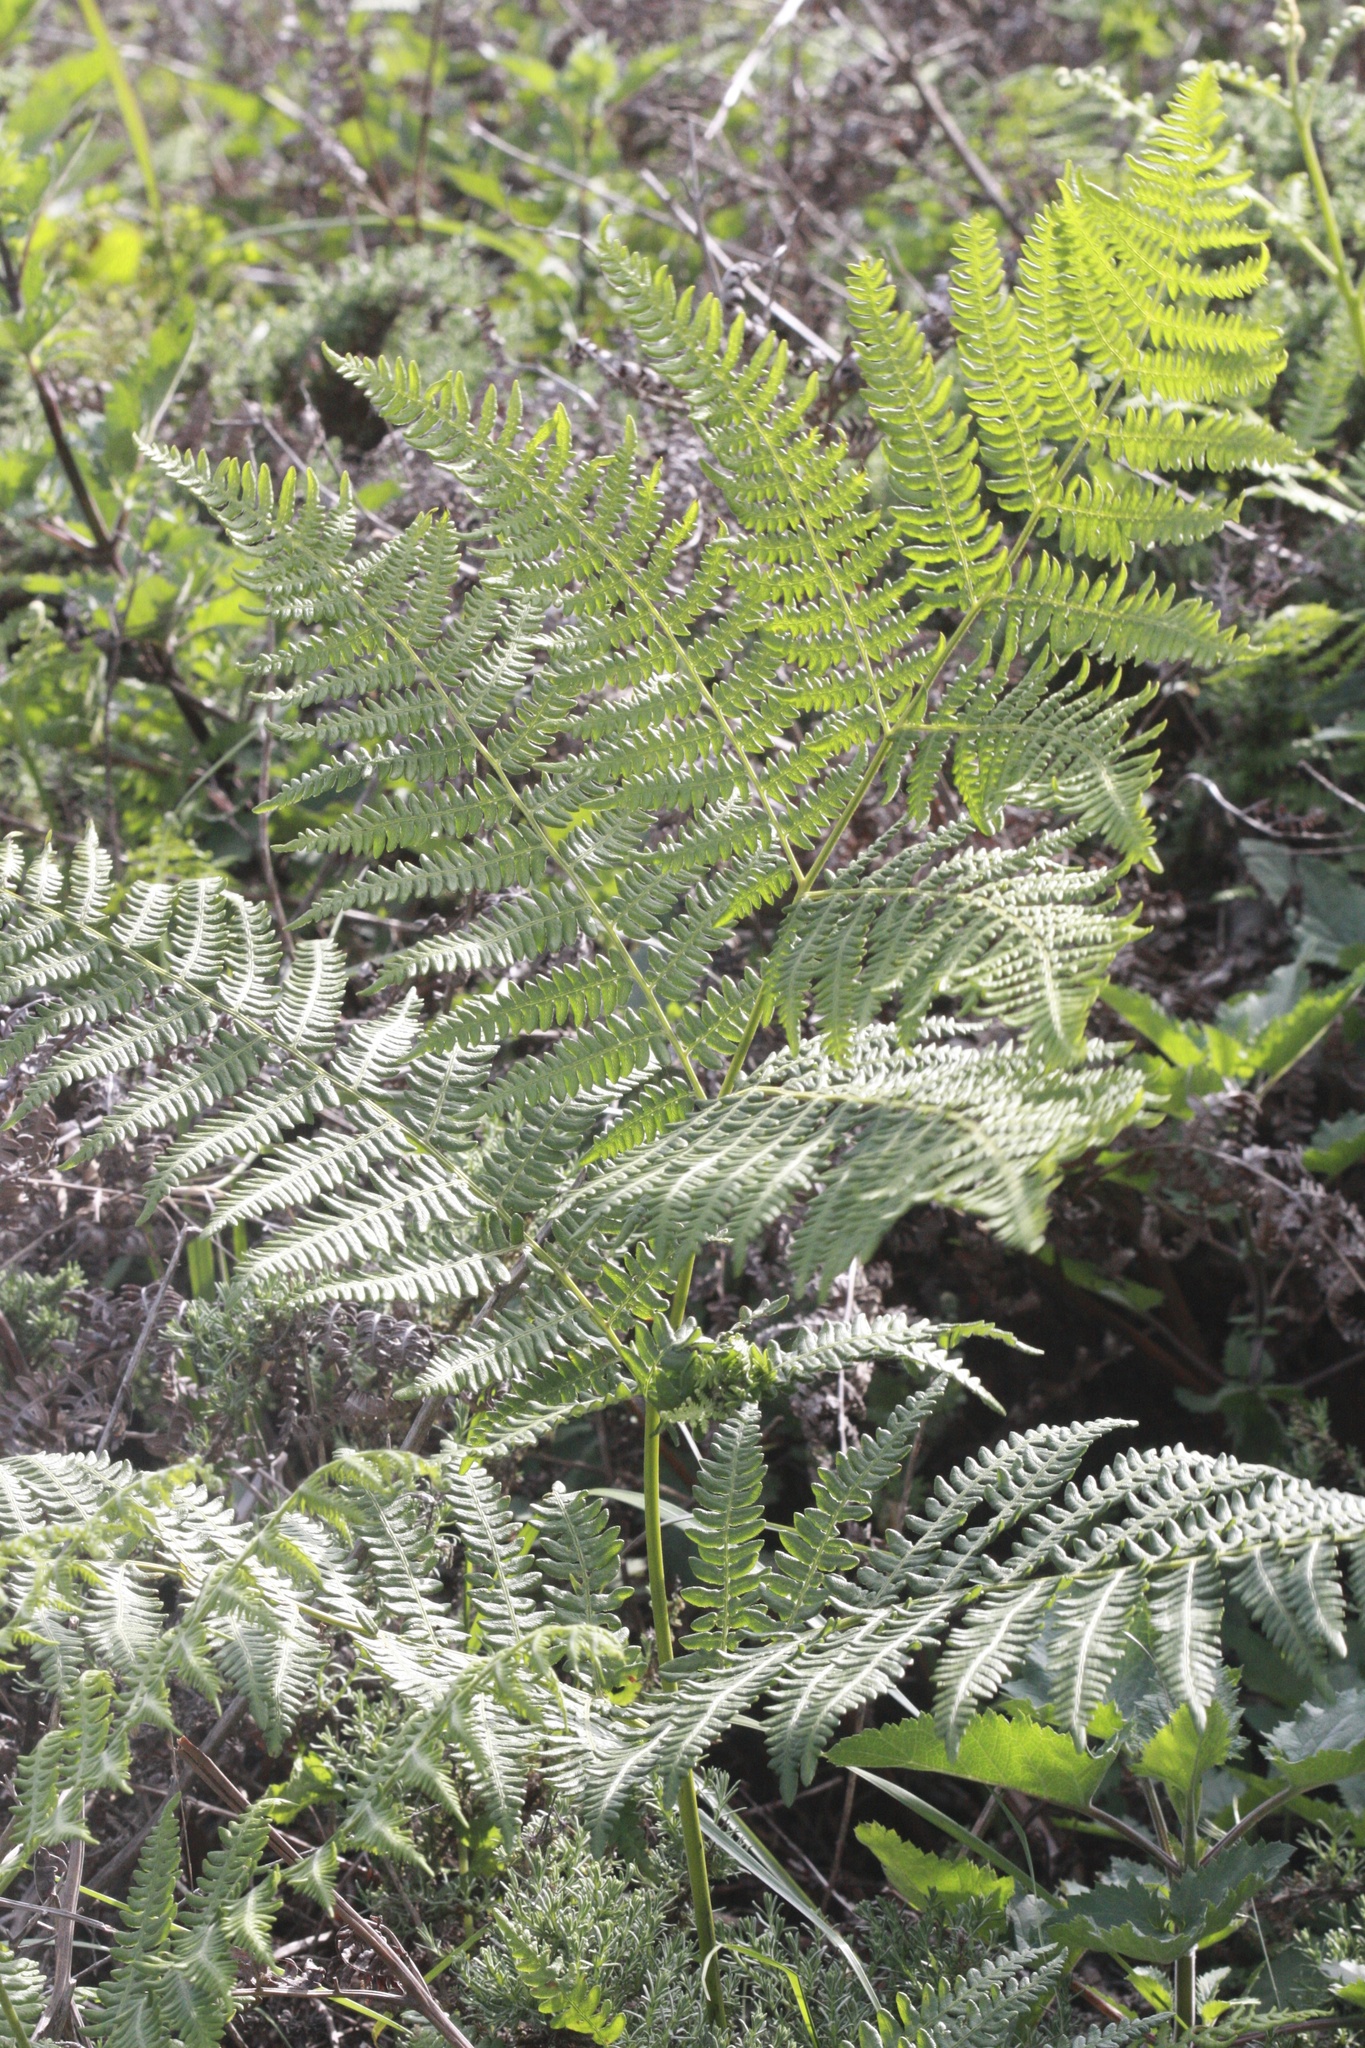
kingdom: Plantae
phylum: Tracheophyta
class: Polypodiopsida
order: Polypodiales
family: Dennstaedtiaceae
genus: Pteridium
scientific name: Pteridium aquilinum
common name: Bracken
